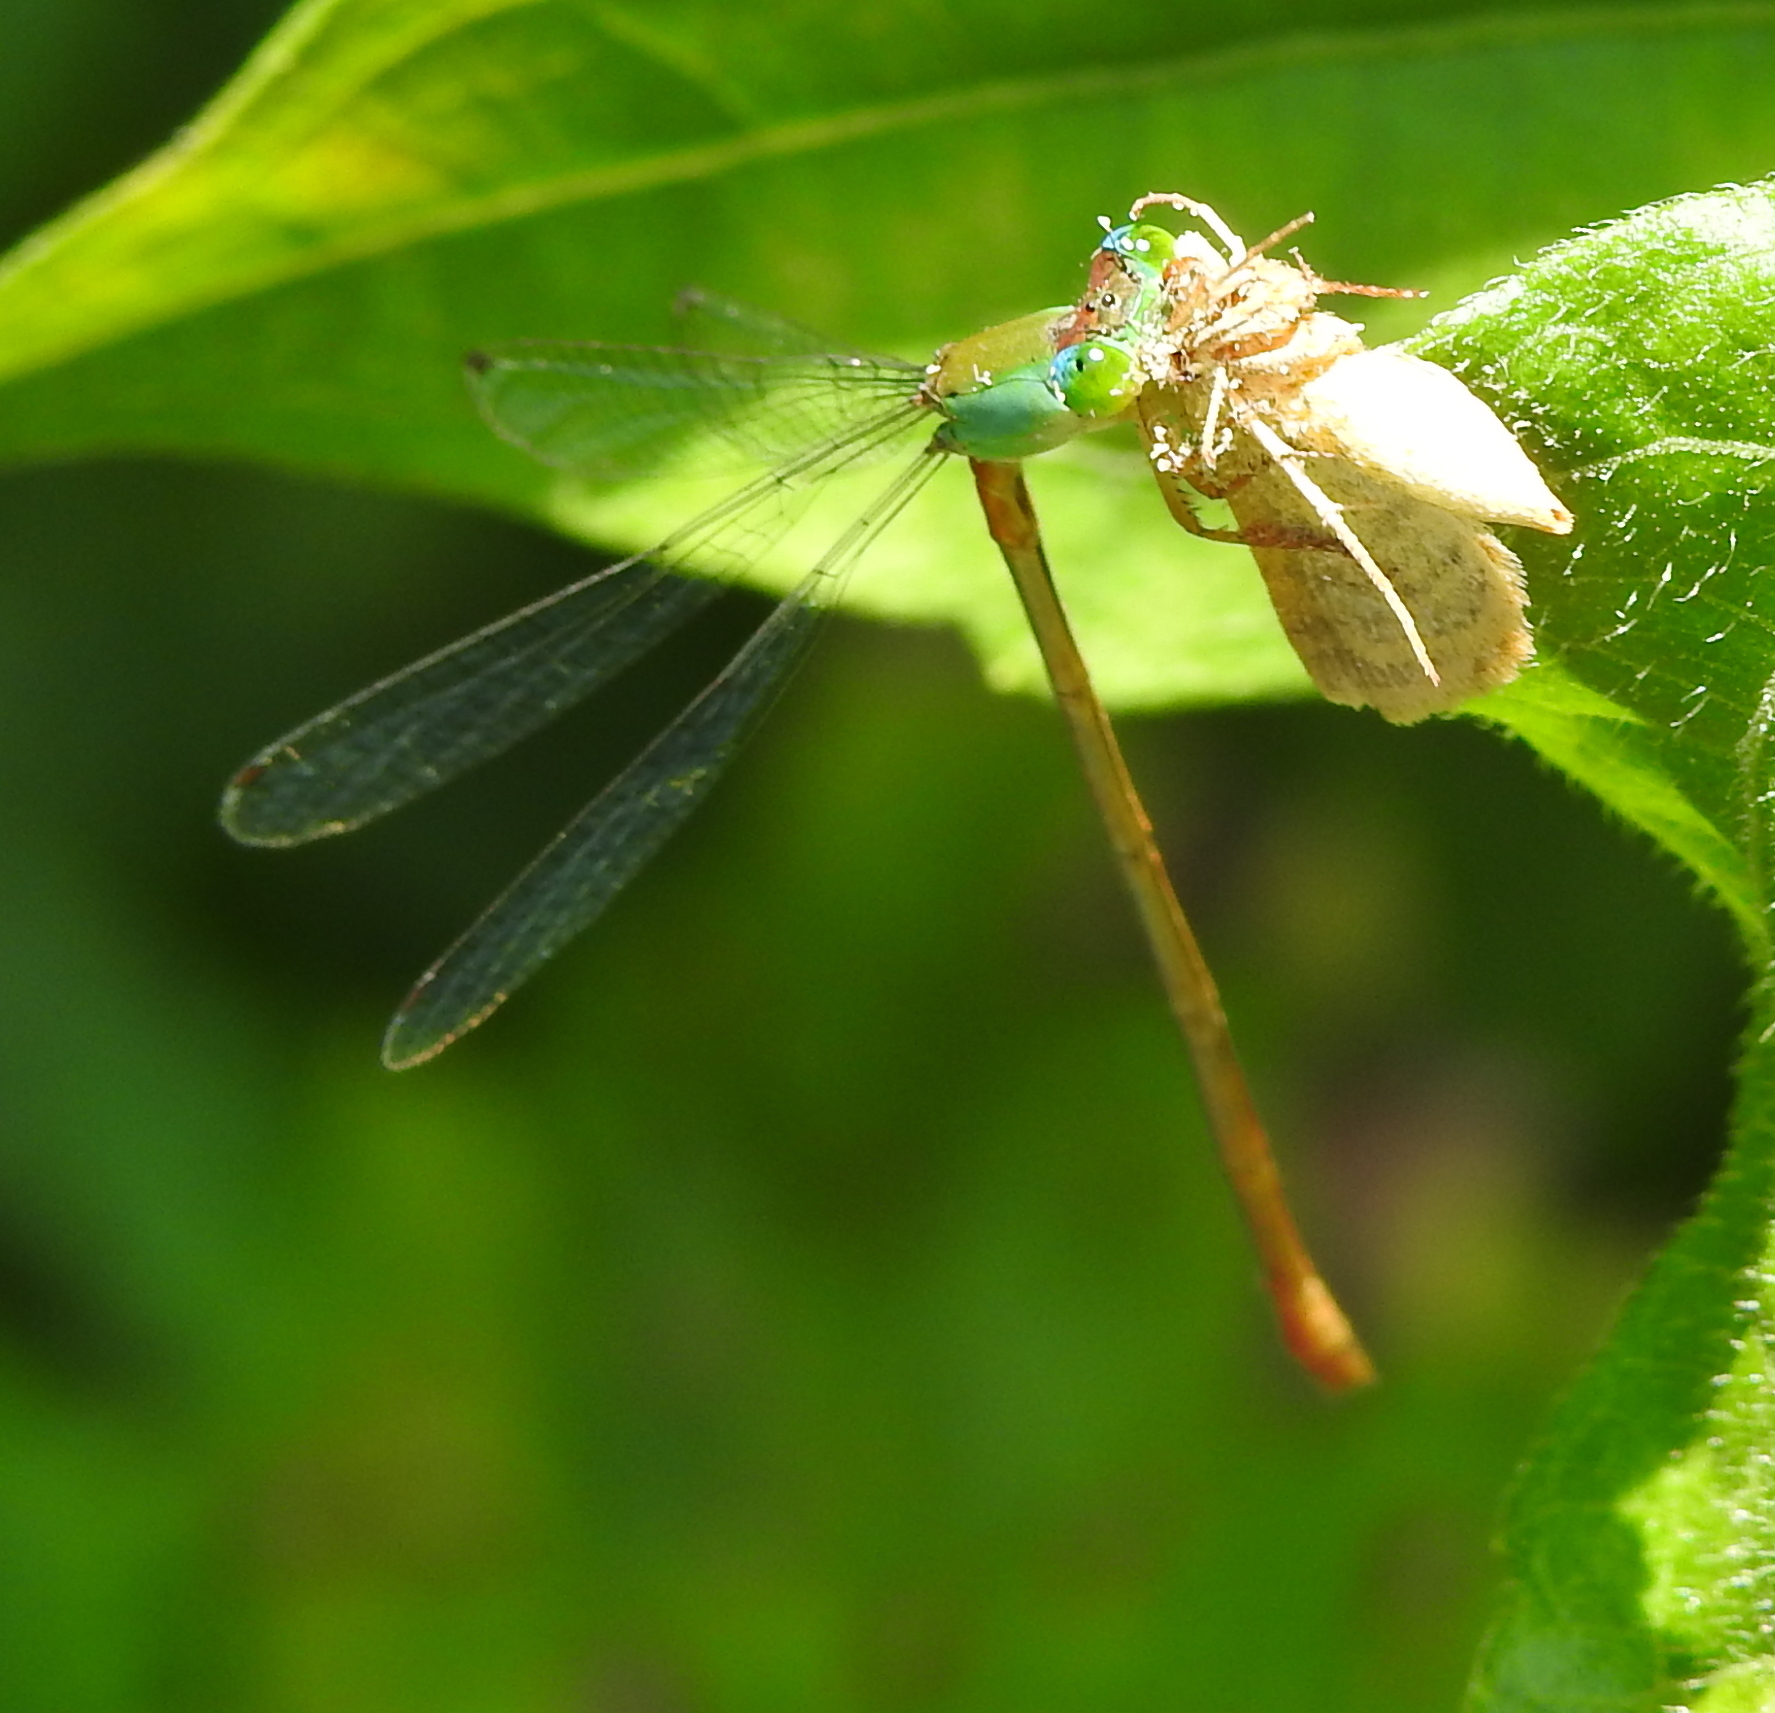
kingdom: Animalia
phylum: Arthropoda
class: Insecta
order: Odonata
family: Coenagrionidae
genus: Ceriagrion
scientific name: Ceriagrion cerinorubellum
